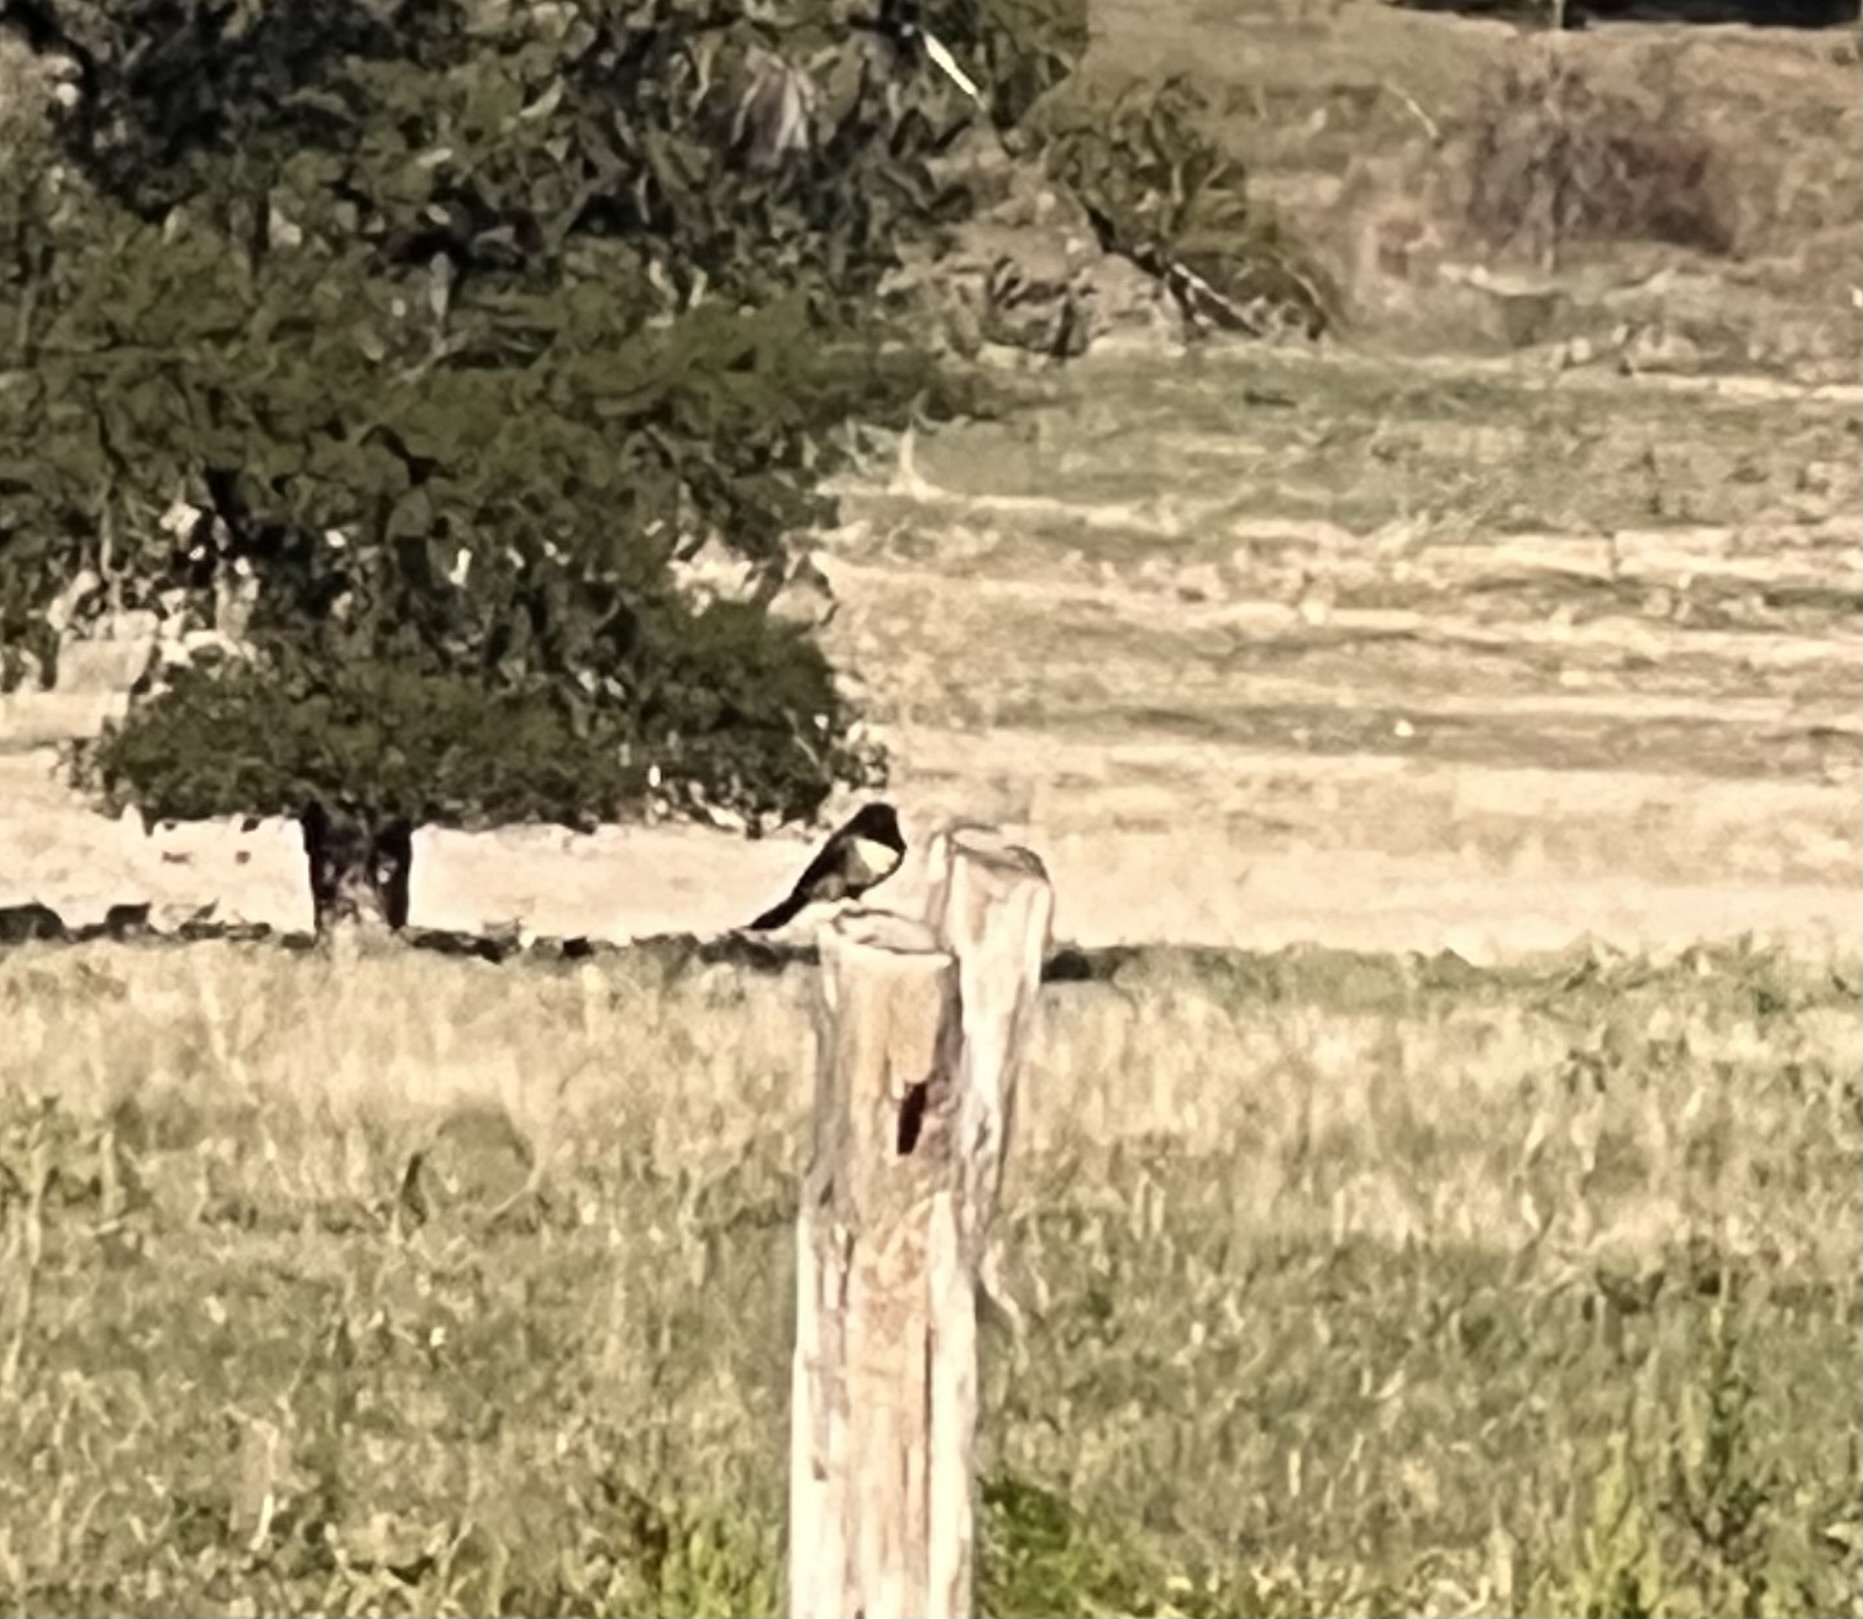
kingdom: Animalia
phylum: Chordata
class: Aves
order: Passeriformes
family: Tyrannidae
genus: Sayornis
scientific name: Sayornis phoebe
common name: Eastern phoebe
